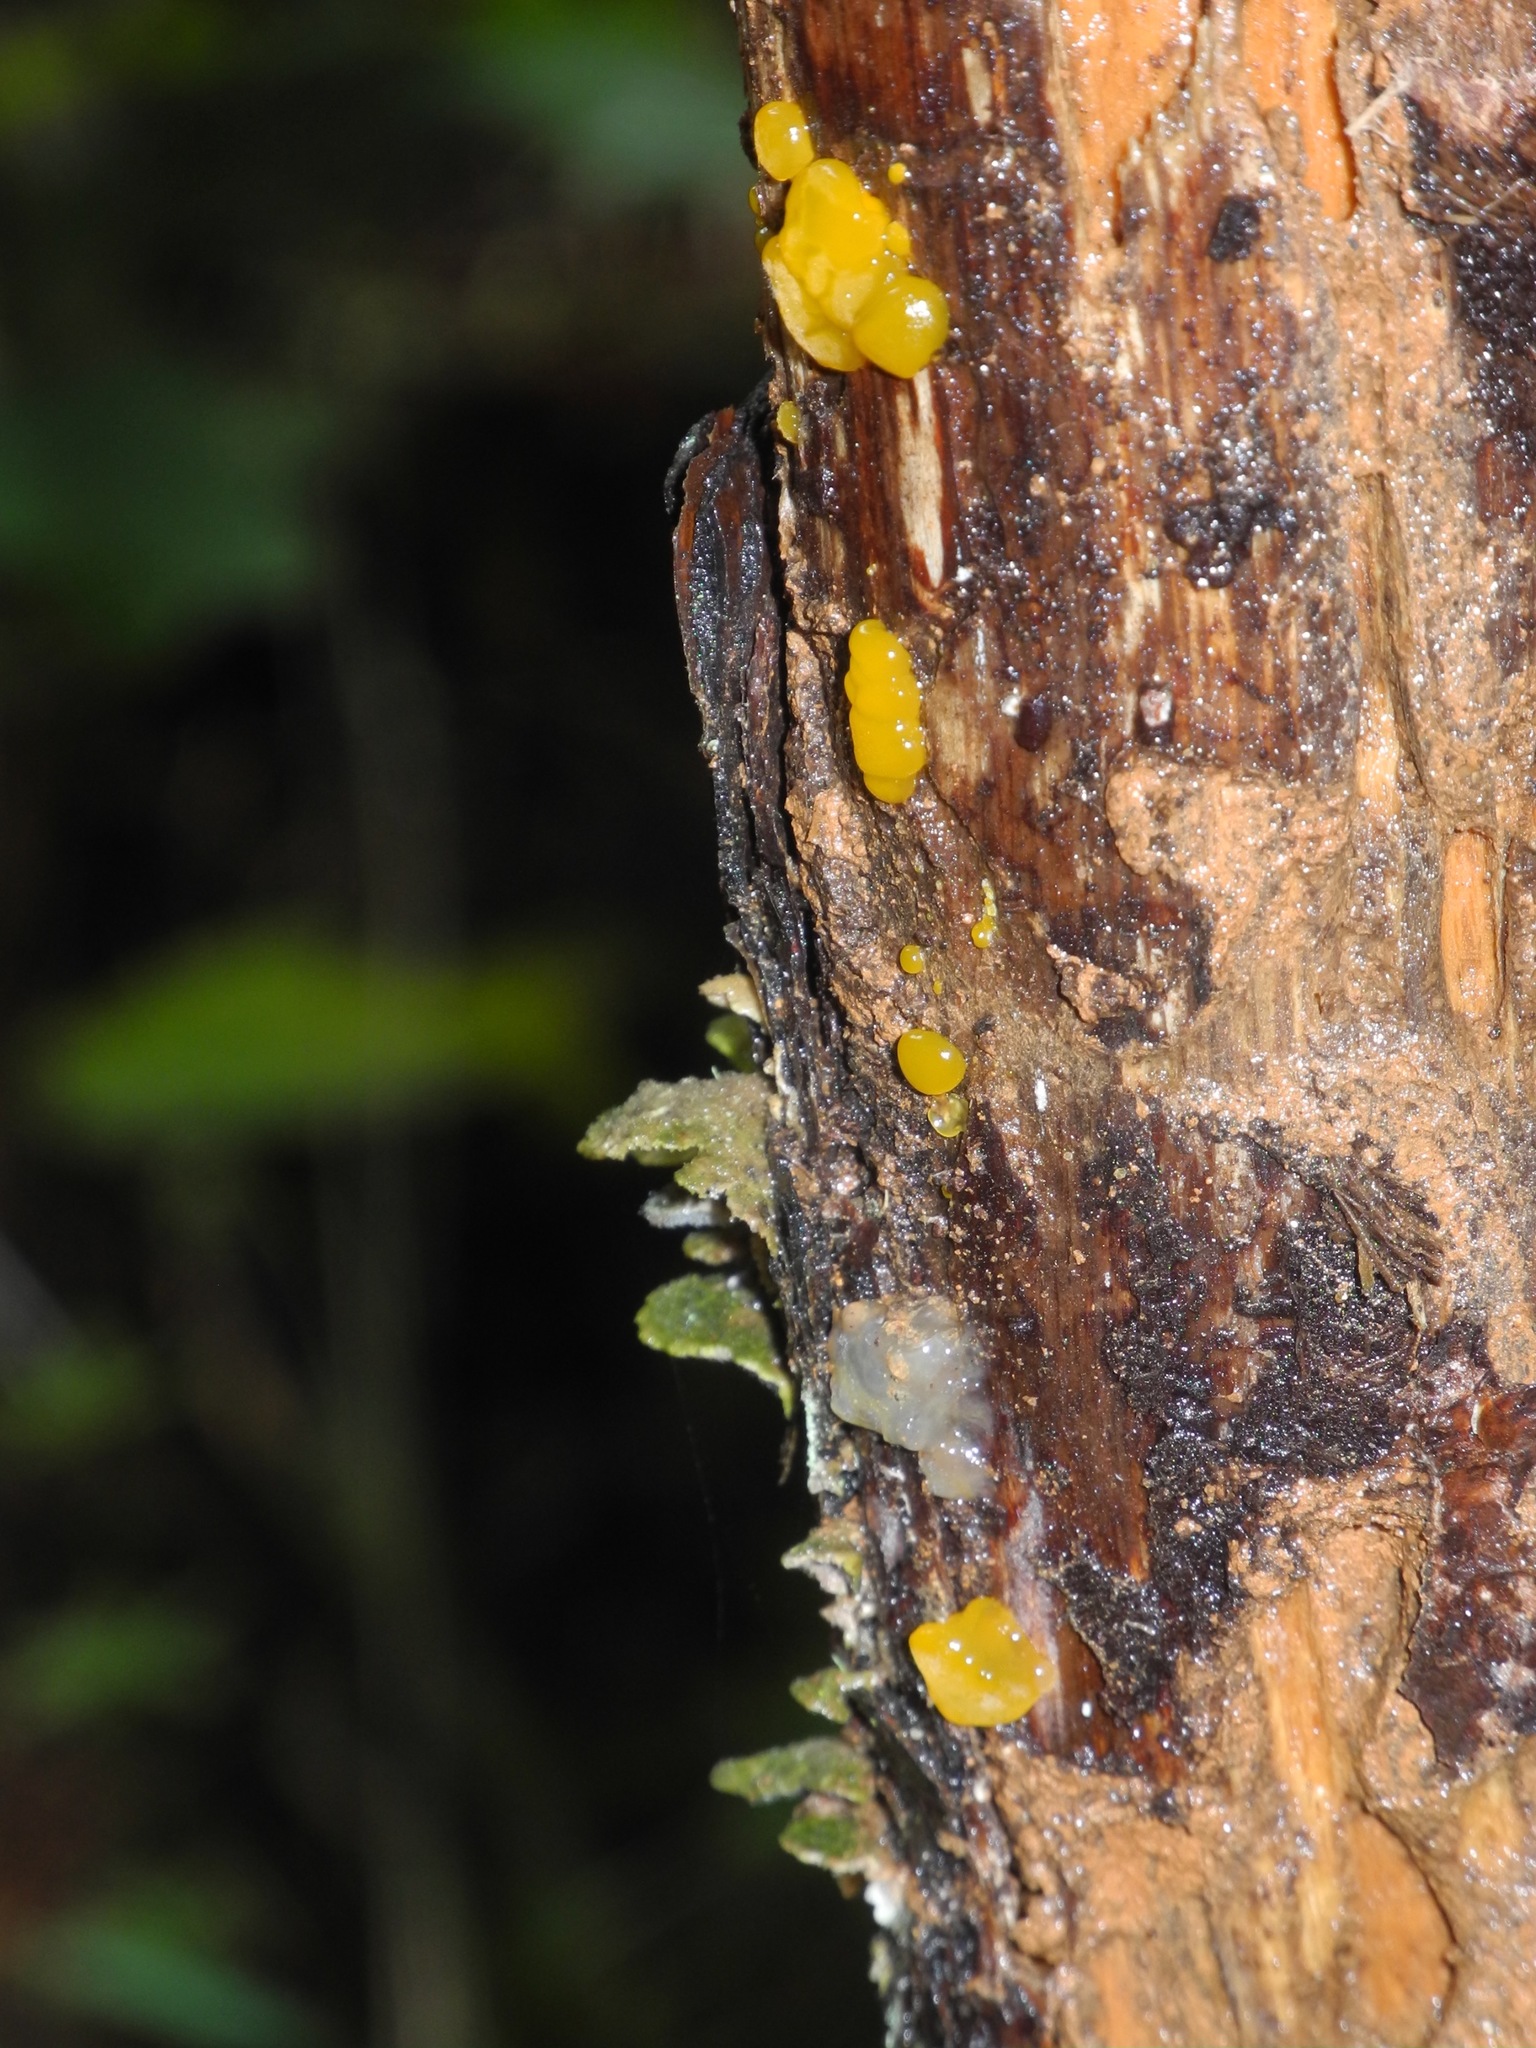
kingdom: Fungi
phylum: Basidiomycota
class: Dacrymycetes
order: Dacrymycetales
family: Dacrymycetaceae
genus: Dacrymyces
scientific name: Dacrymyces chrysospermus
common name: Orange jelly spot
